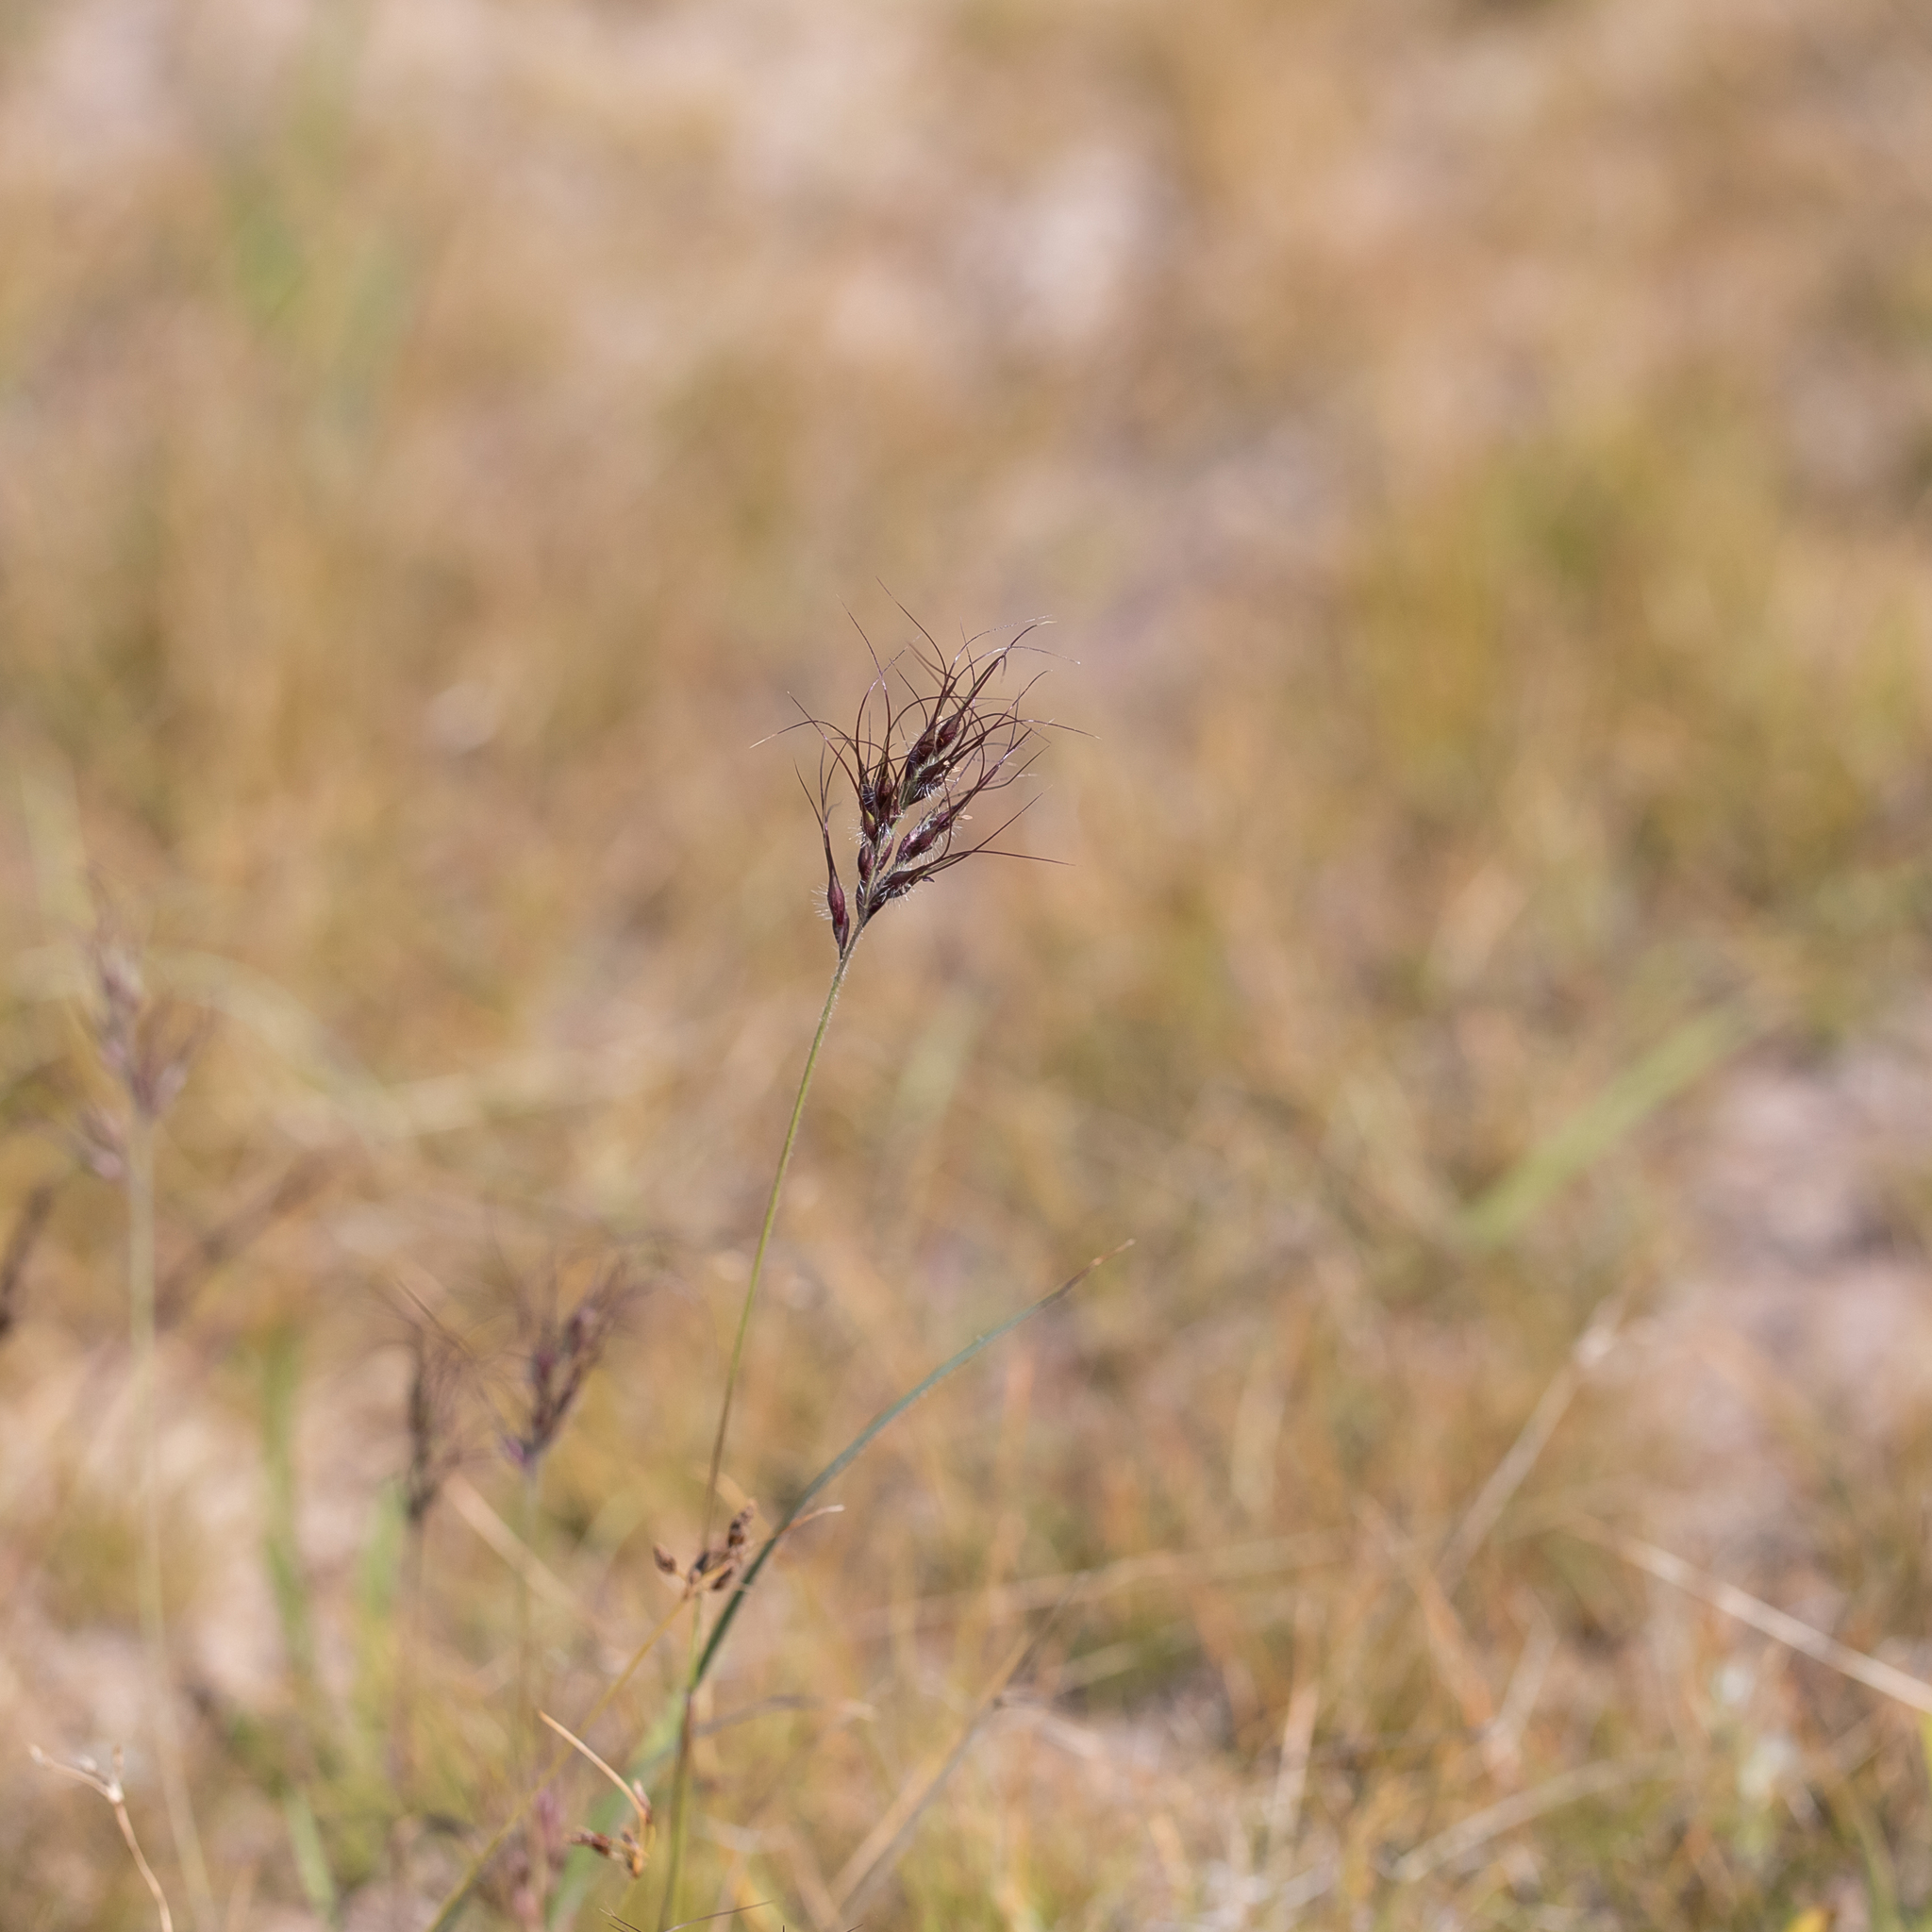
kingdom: Plantae
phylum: Tracheophyta
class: Liliopsida
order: Poales
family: Poaceae
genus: Eriachne
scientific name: Eriachne armitii
